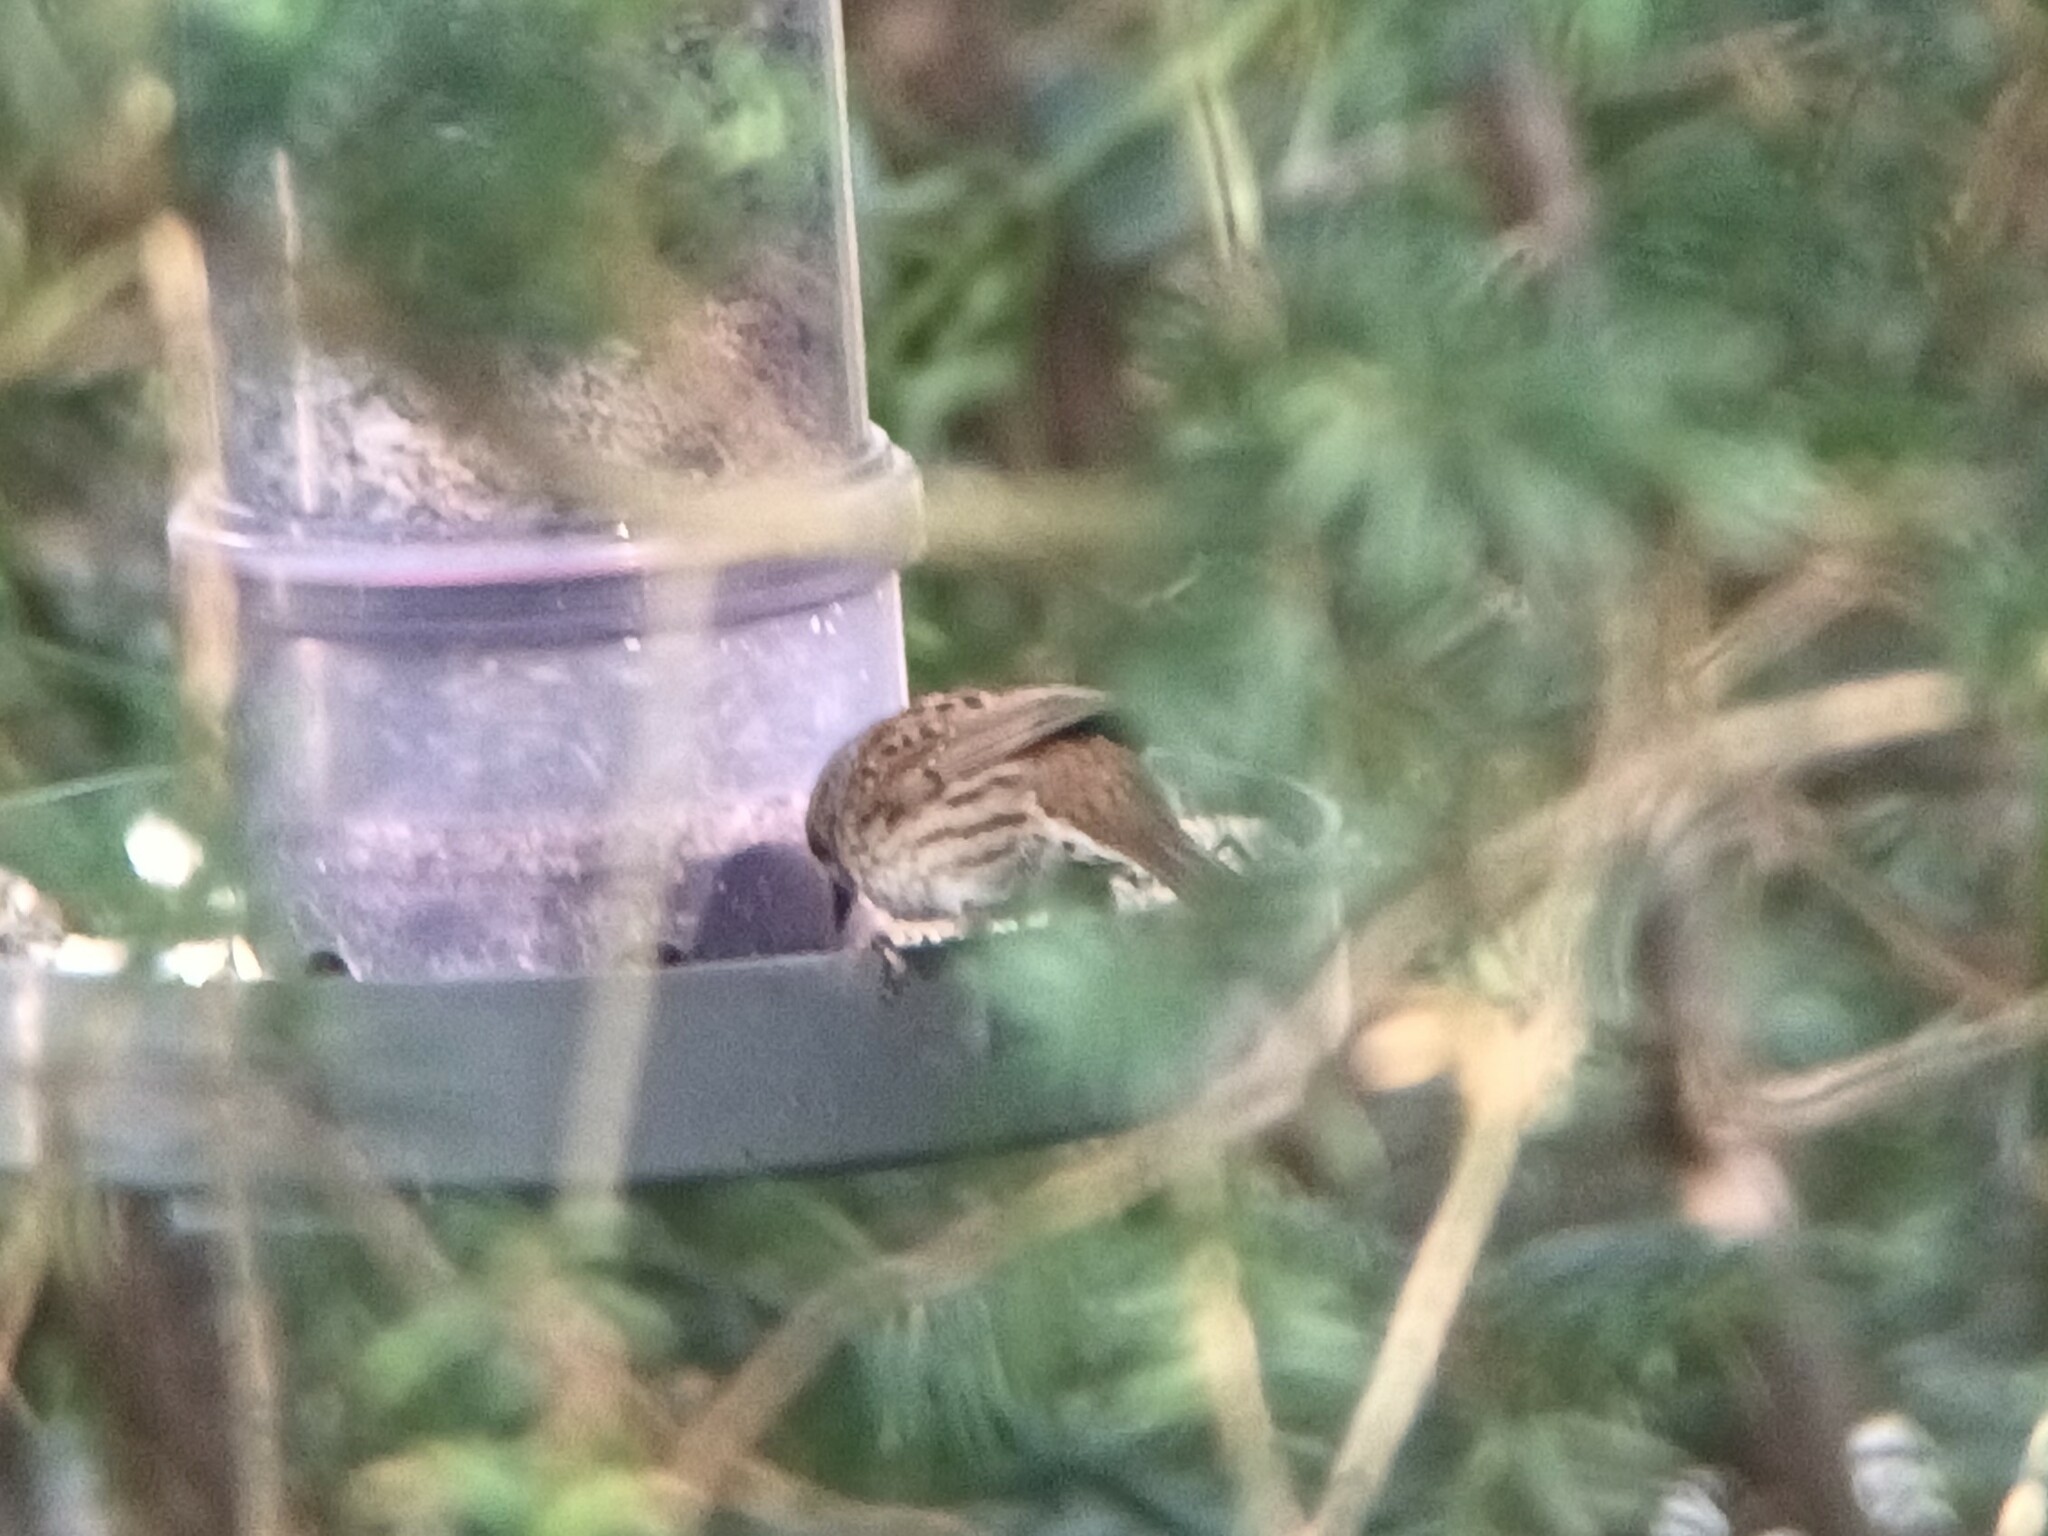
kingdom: Animalia
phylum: Chordata
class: Aves
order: Passeriformes
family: Prunellidae
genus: Prunella
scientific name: Prunella modularis
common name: Dunnock
